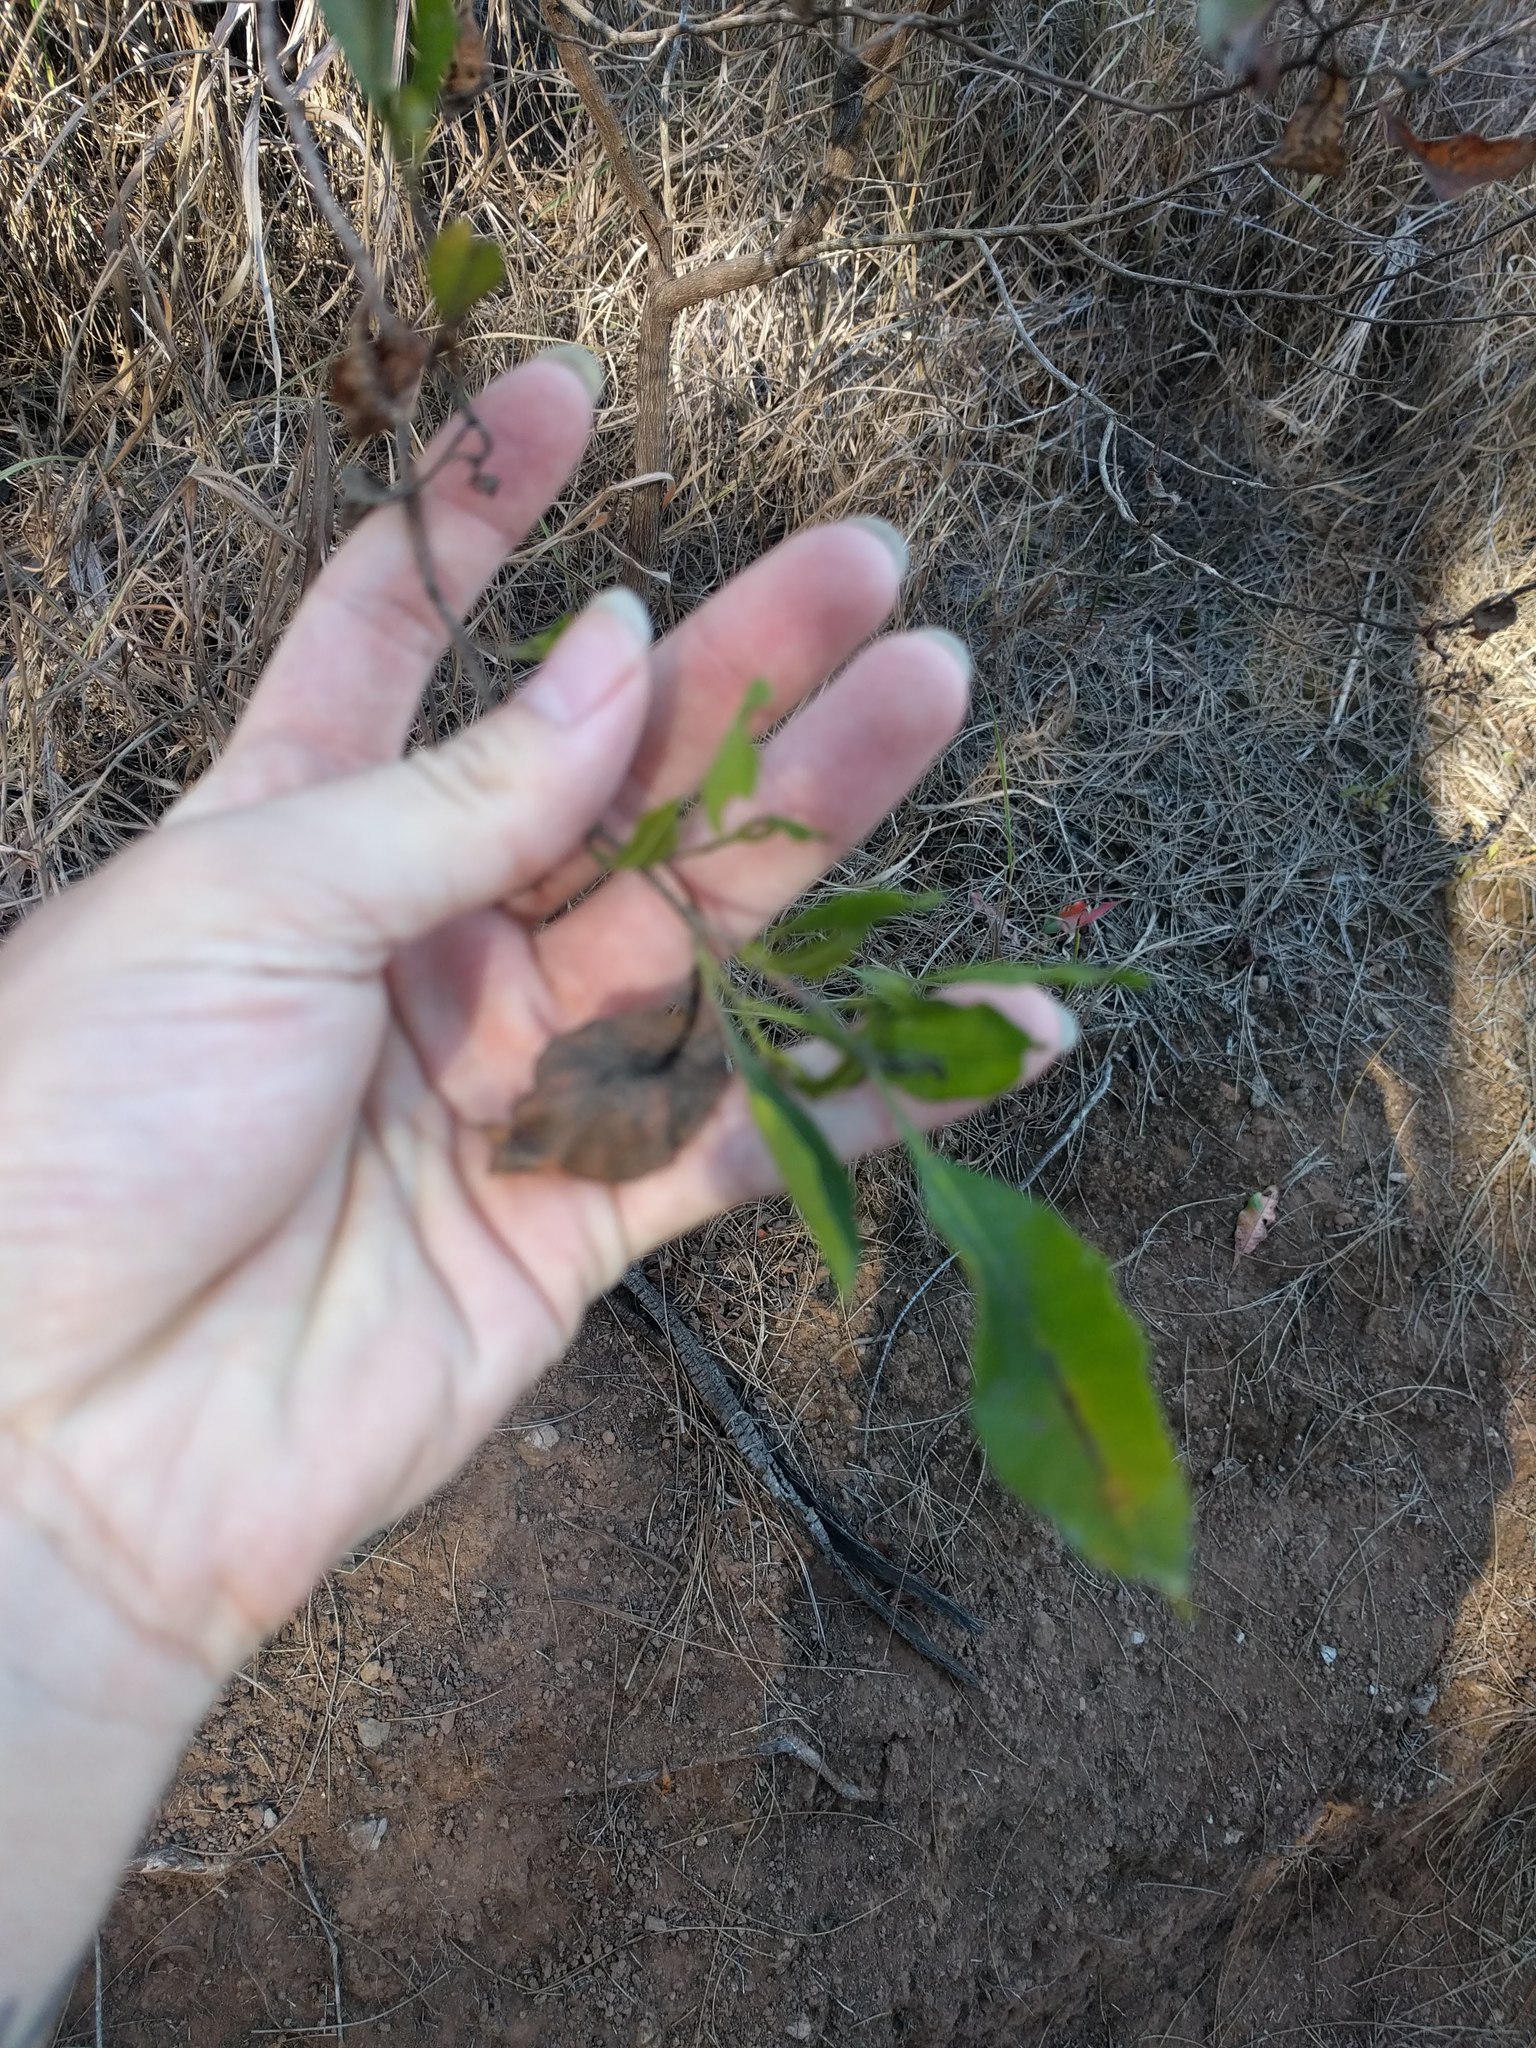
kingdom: Plantae
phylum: Tracheophyta
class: Magnoliopsida
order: Sapindales
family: Sapindaceae
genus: Dodonaea
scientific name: Dodonaea viscosa
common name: Hopbush
